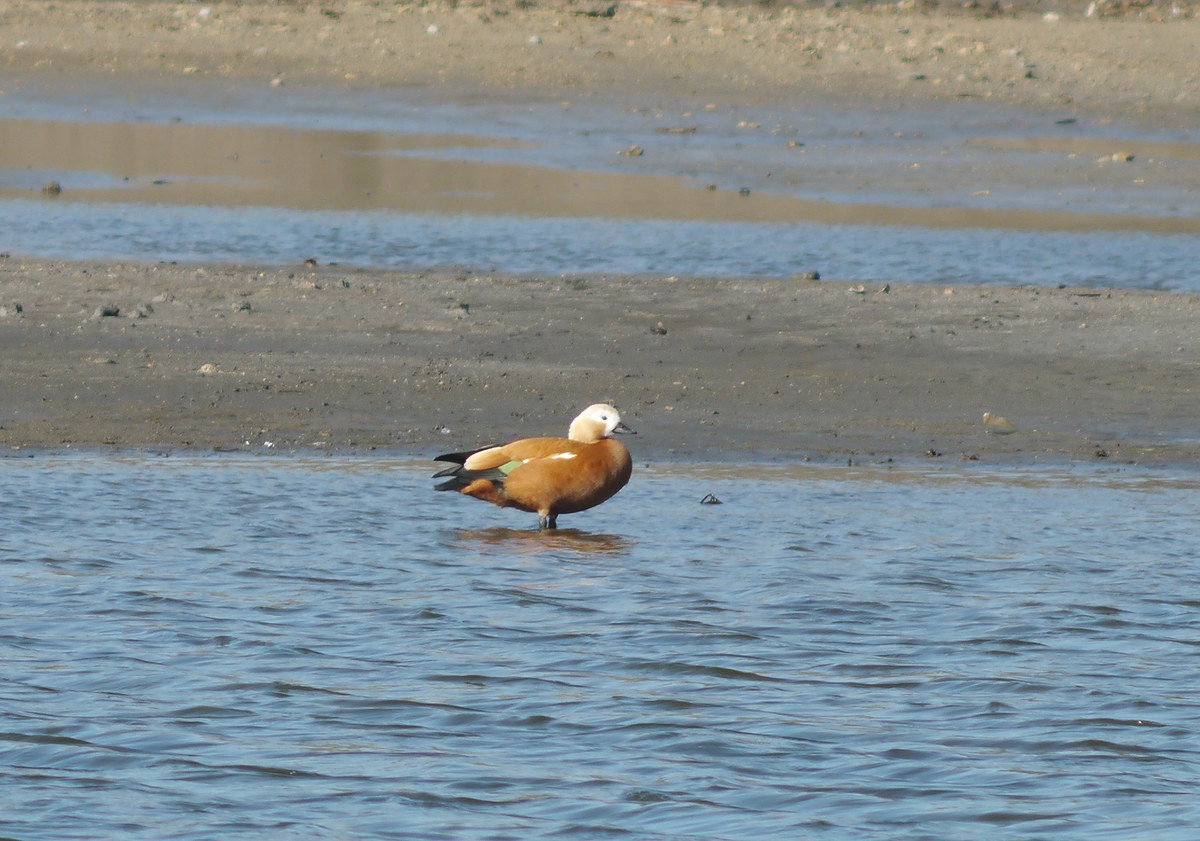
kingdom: Animalia
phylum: Chordata
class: Aves
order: Anseriformes
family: Anatidae
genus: Tadorna
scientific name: Tadorna ferruginea
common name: Ruddy shelduck
